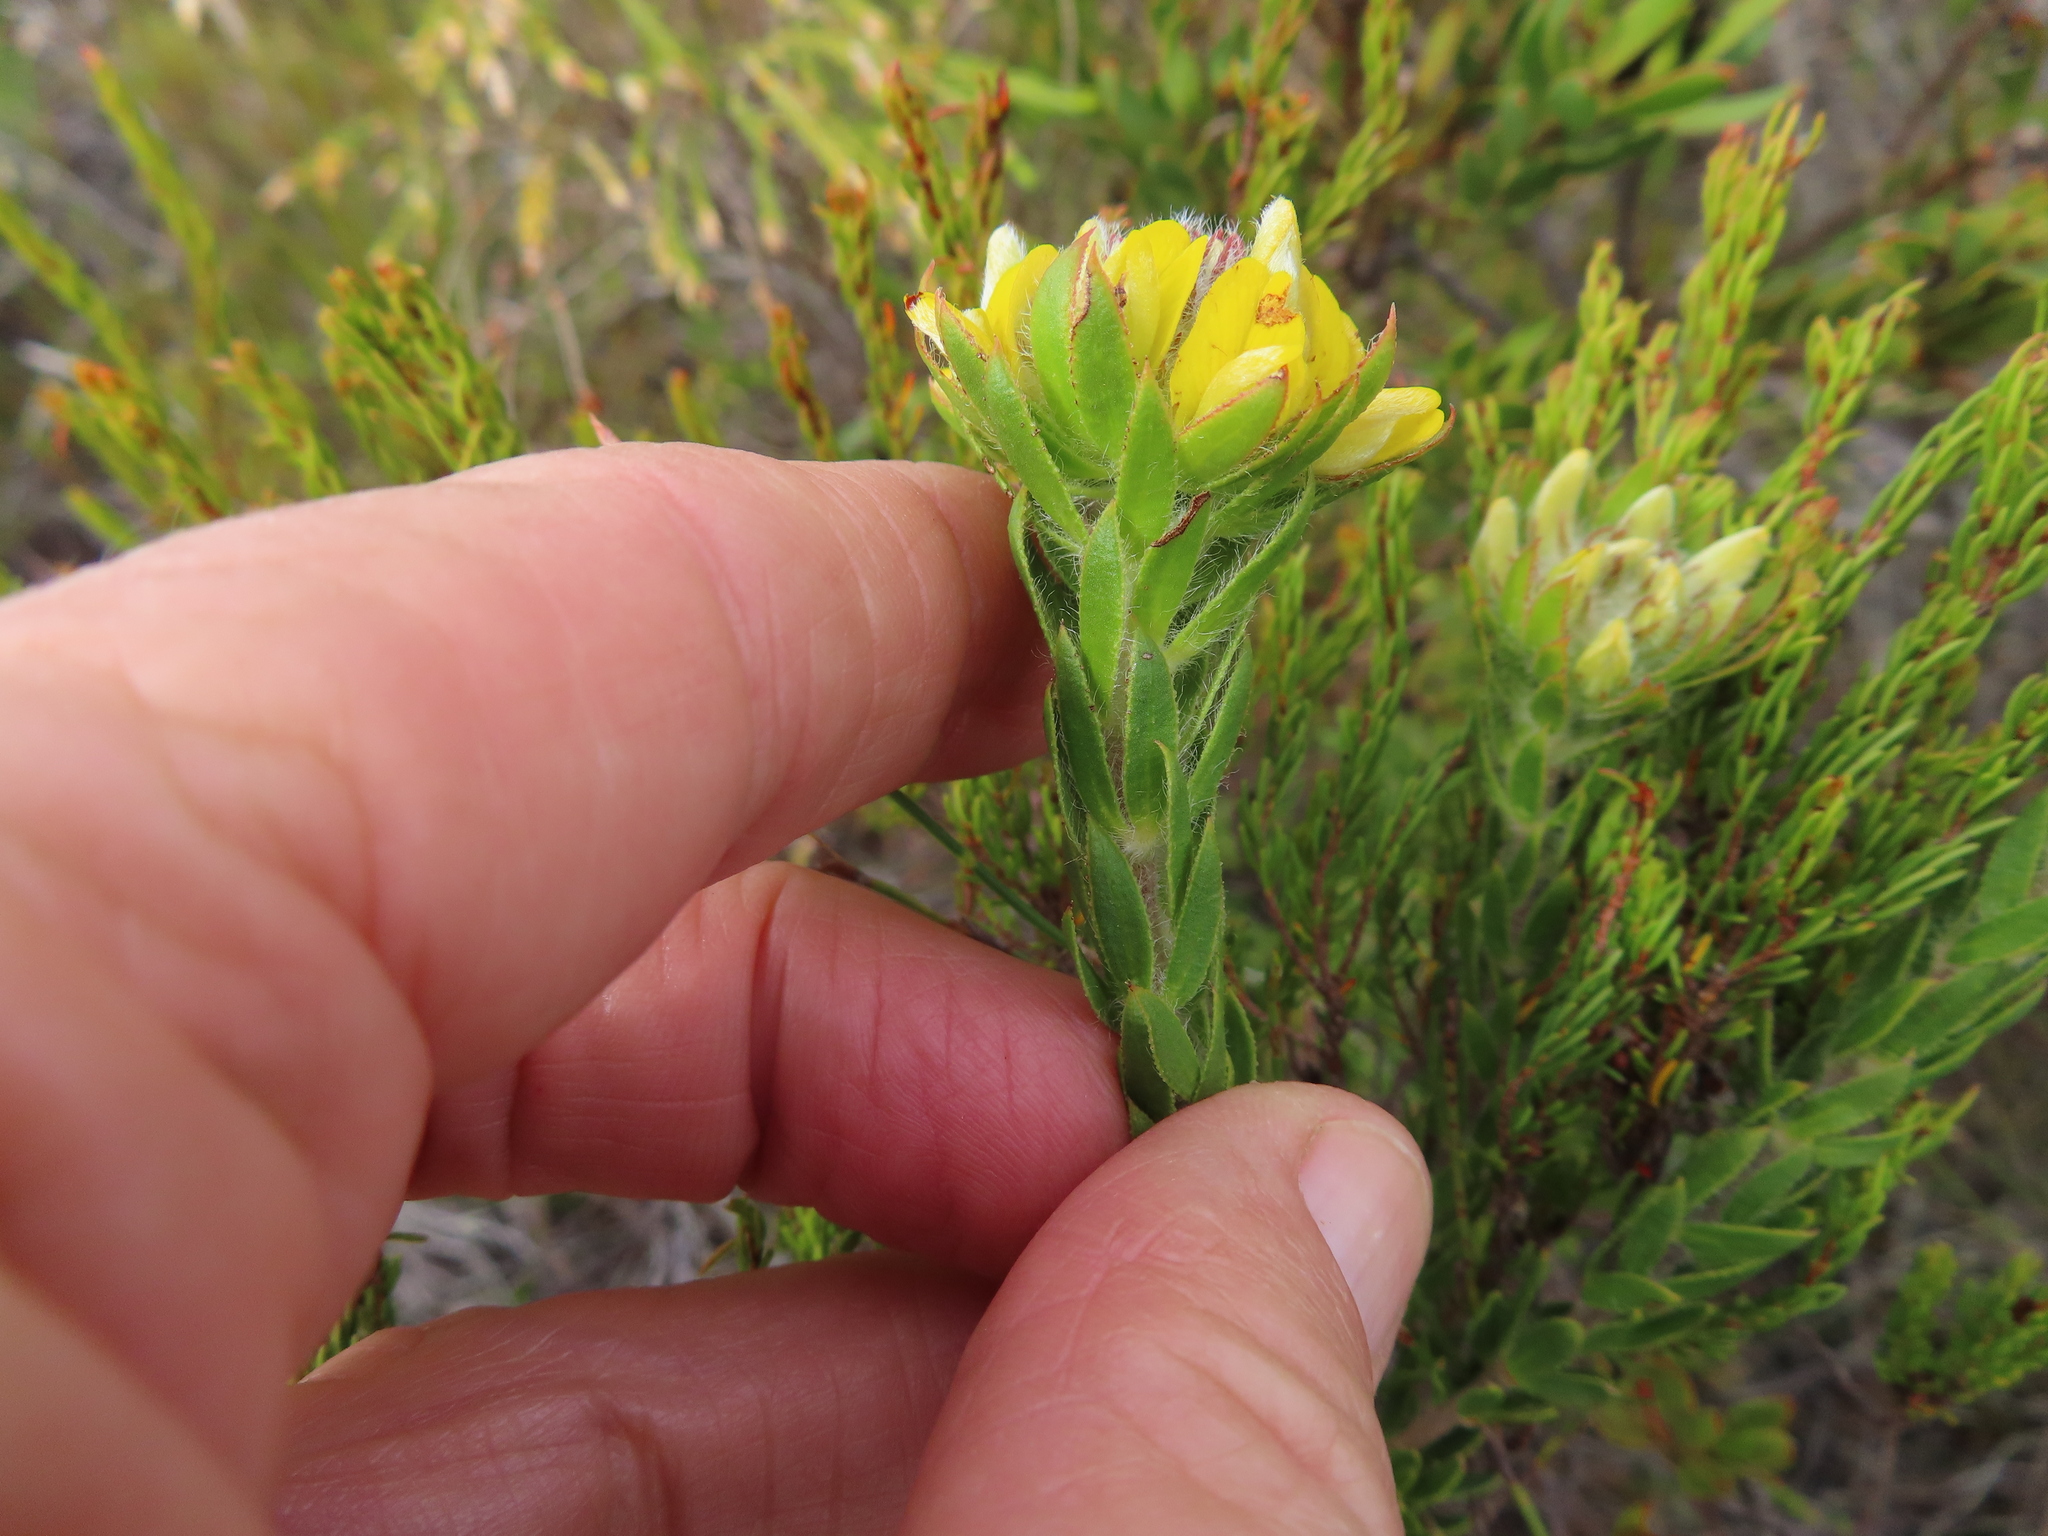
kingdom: Plantae
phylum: Tracheophyta
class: Magnoliopsida
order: Fabales
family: Fabaceae
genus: Aspalathus
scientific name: Aspalathus aspalathoides
